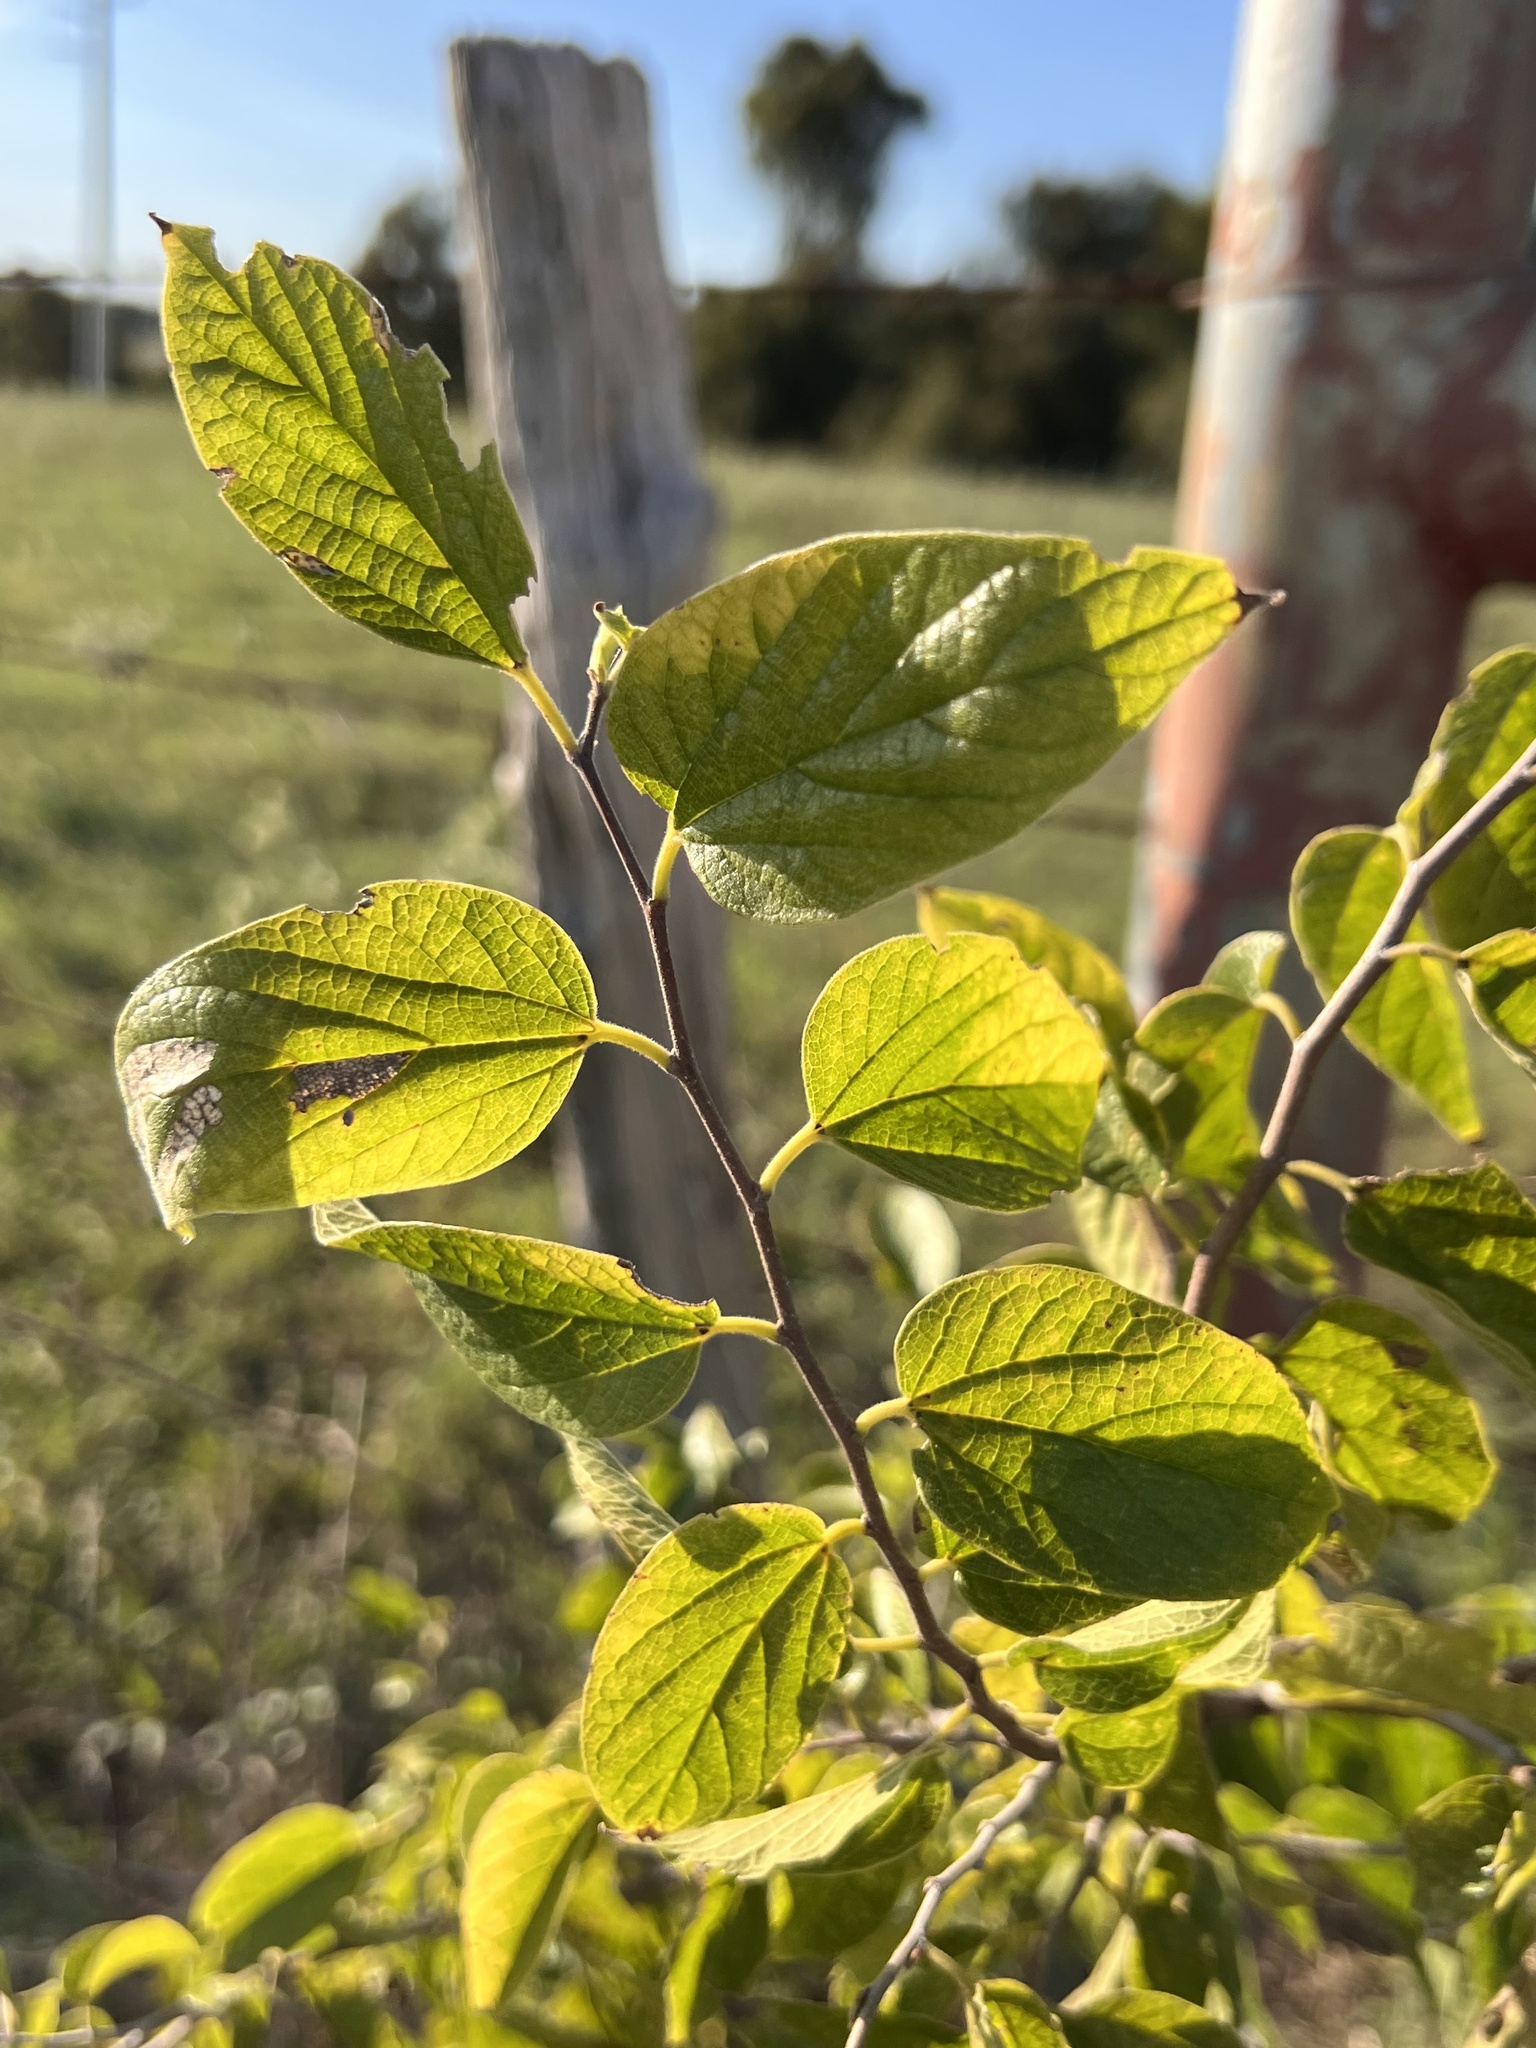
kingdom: Plantae
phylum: Tracheophyta
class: Magnoliopsida
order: Rosales
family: Cannabaceae
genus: Celtis
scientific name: Celtis reticulata
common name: Netleaf hackberry
